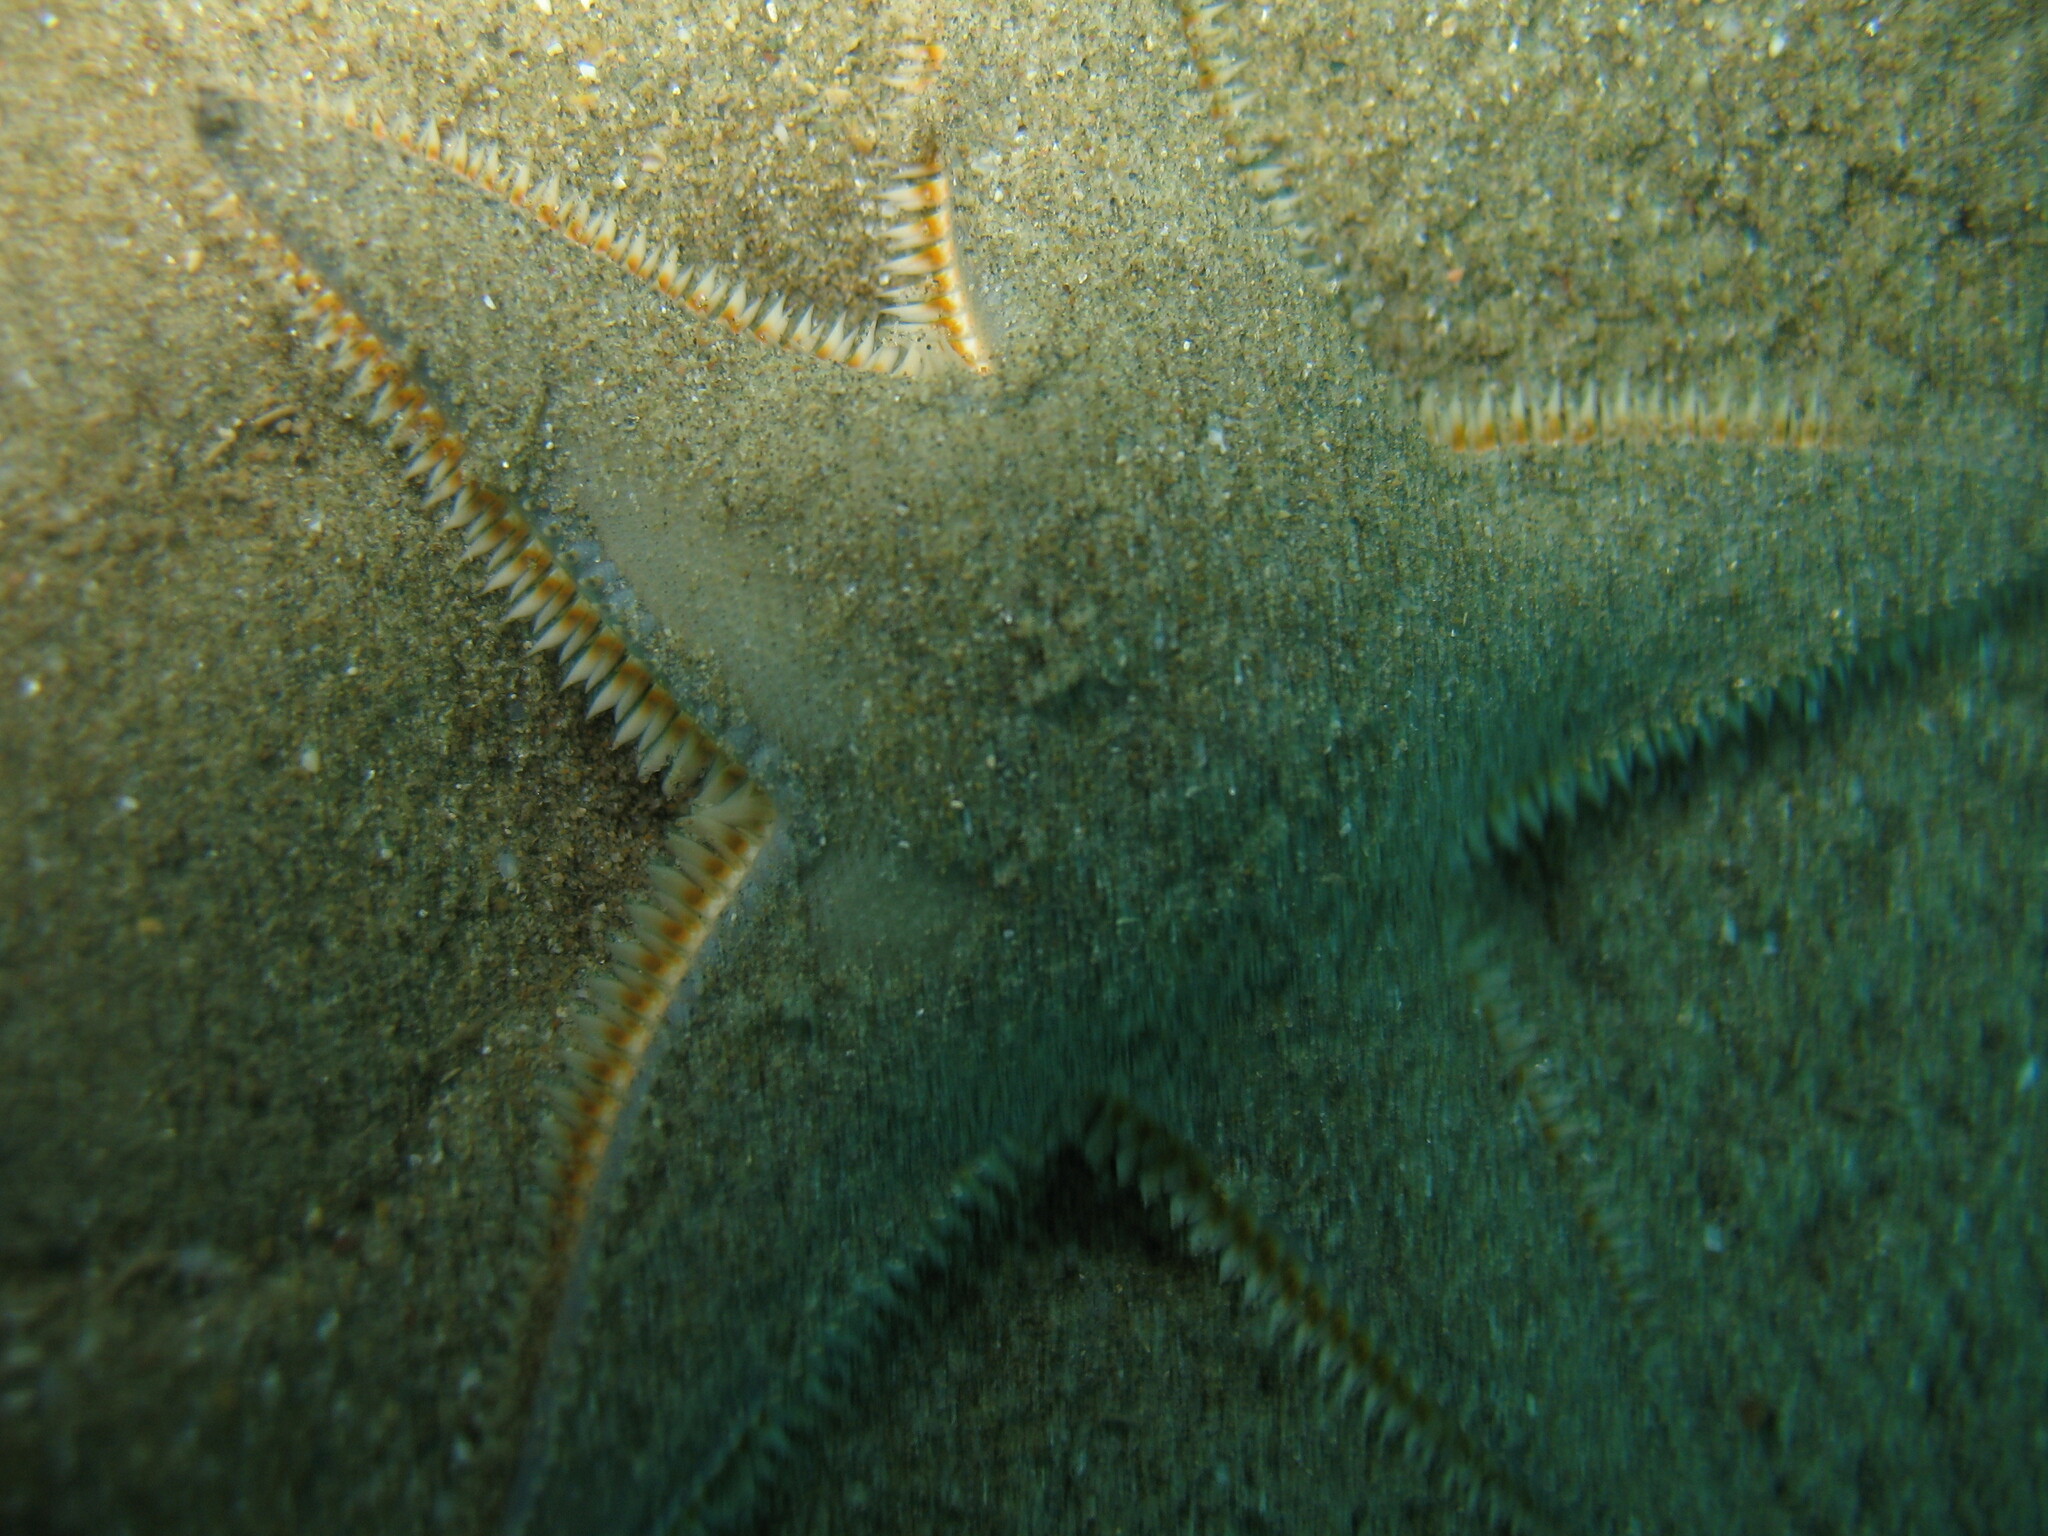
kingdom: Animalia
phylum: Echinodermata
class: Asteroidea
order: Paxillosida
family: Astropectinidae
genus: Astropecten
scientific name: Astropecten jonstoni
